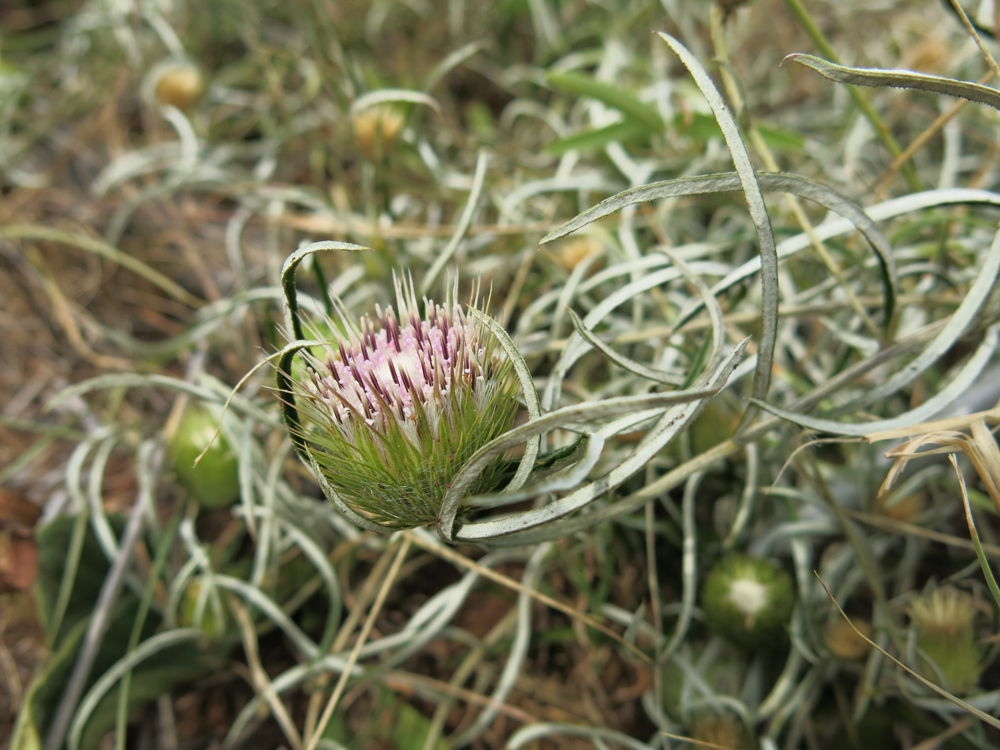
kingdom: Plantae
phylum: Tracheophyta
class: Magnoliopsida
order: Asterales
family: Asteraceae
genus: Dicoma
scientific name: Dicoma anomala
